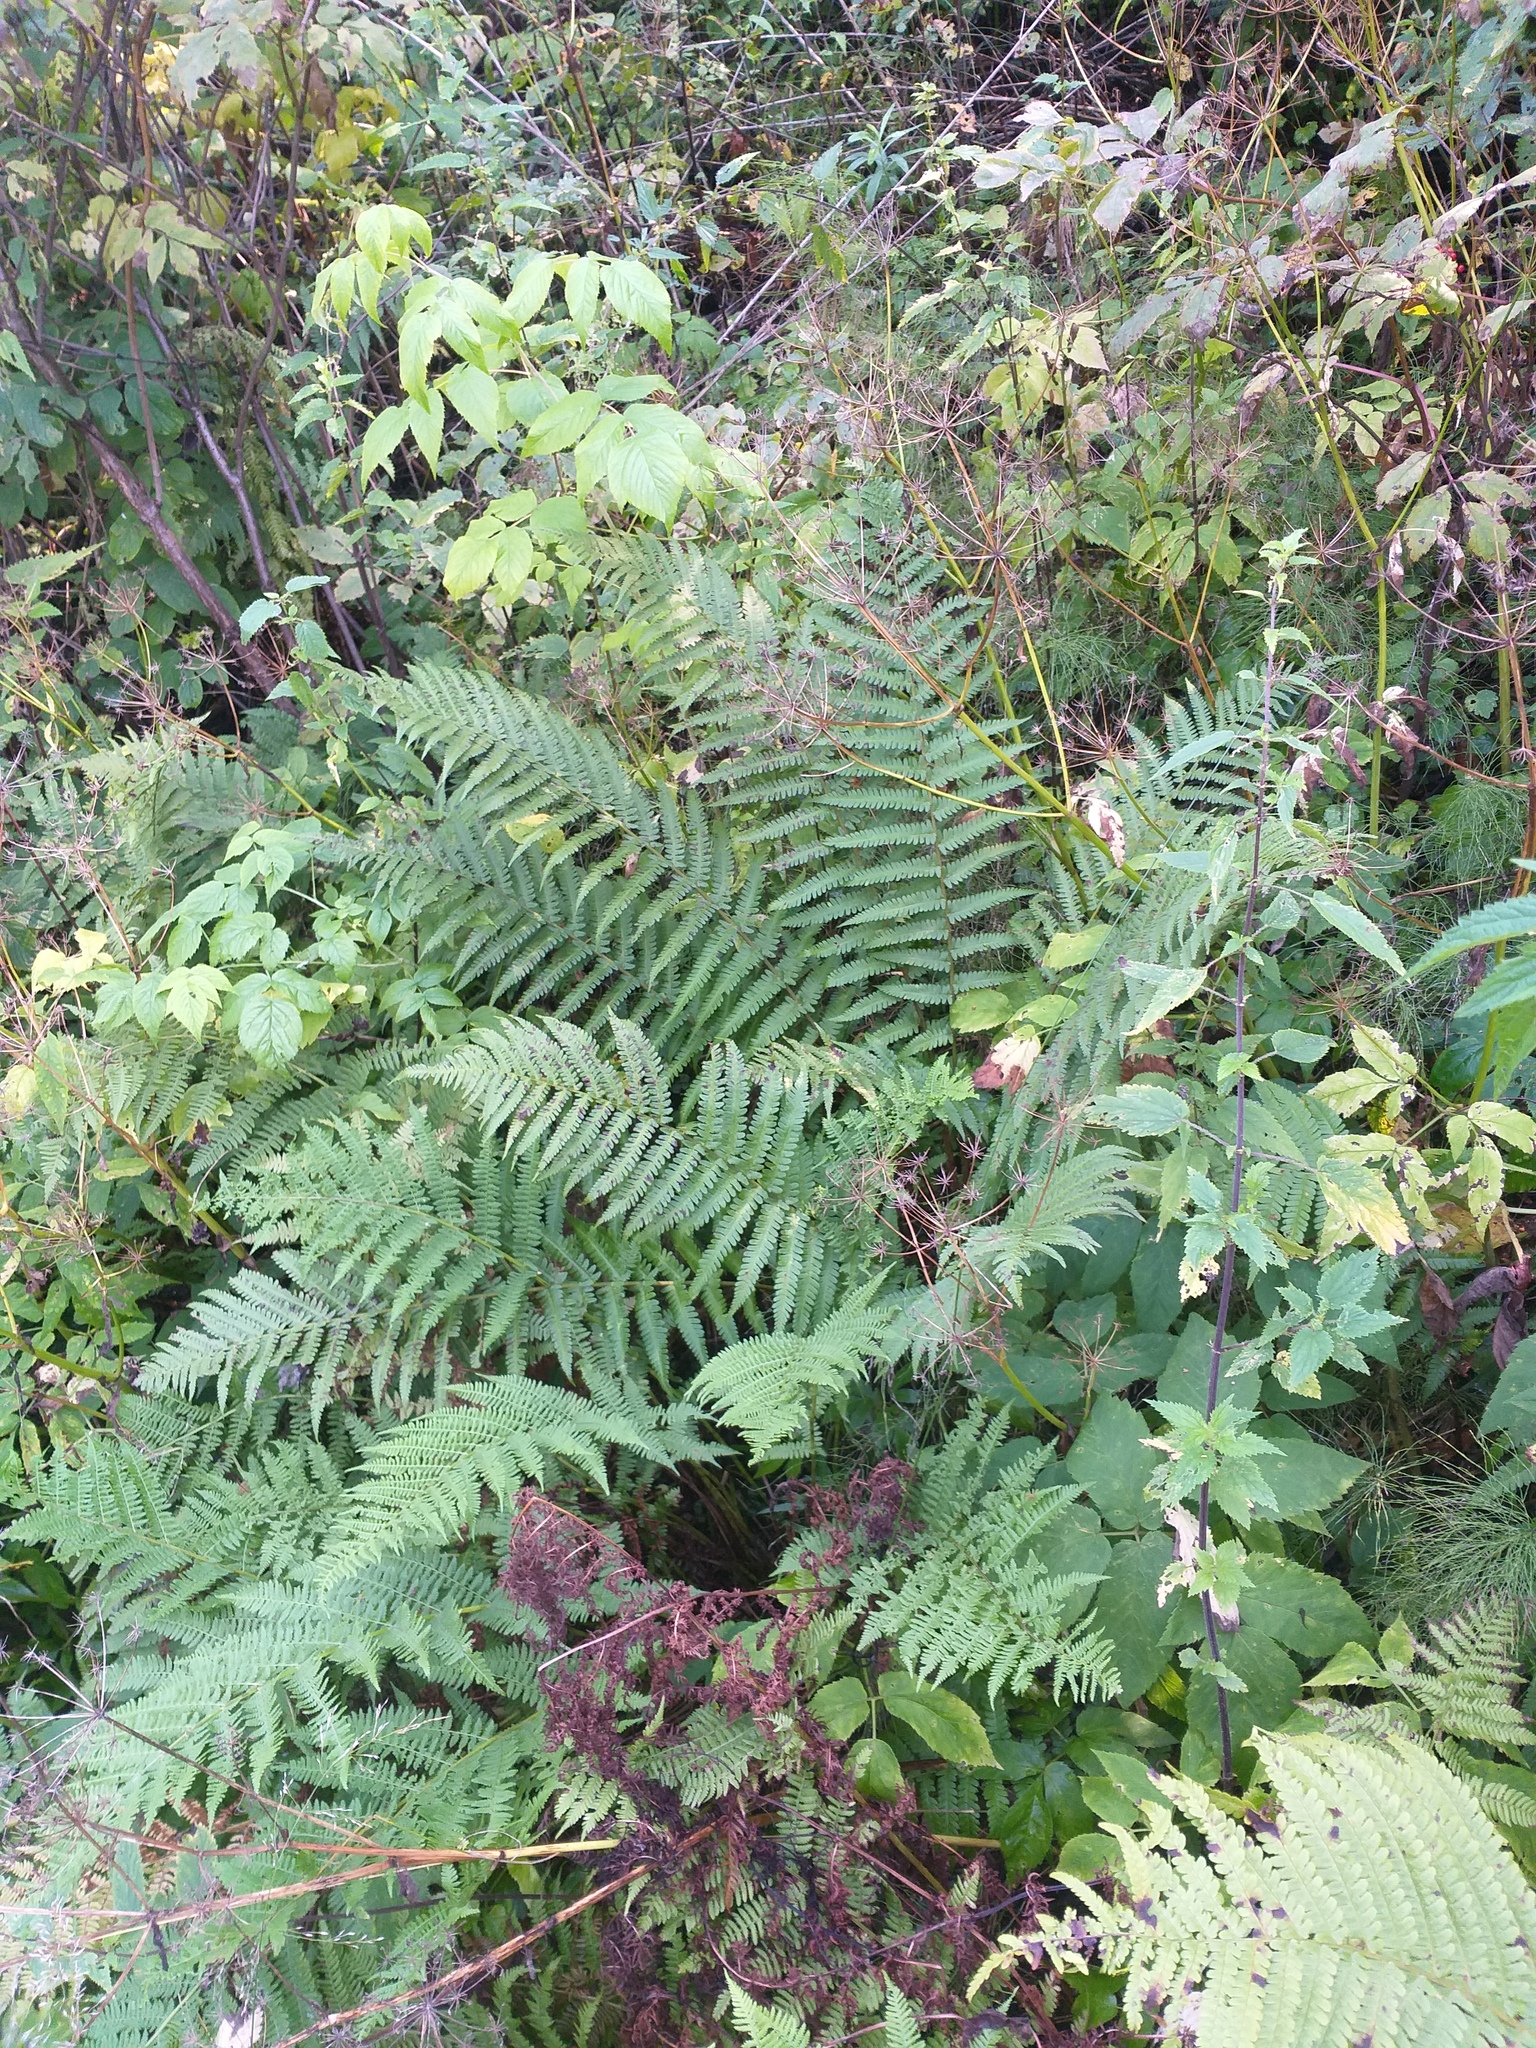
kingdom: Plantae
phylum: Tracheophyta
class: Polypodiopsida
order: Polypodiales
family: Dryopteridaceae
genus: Dryopteris
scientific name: Dryopteris filix-mas
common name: Male fern
